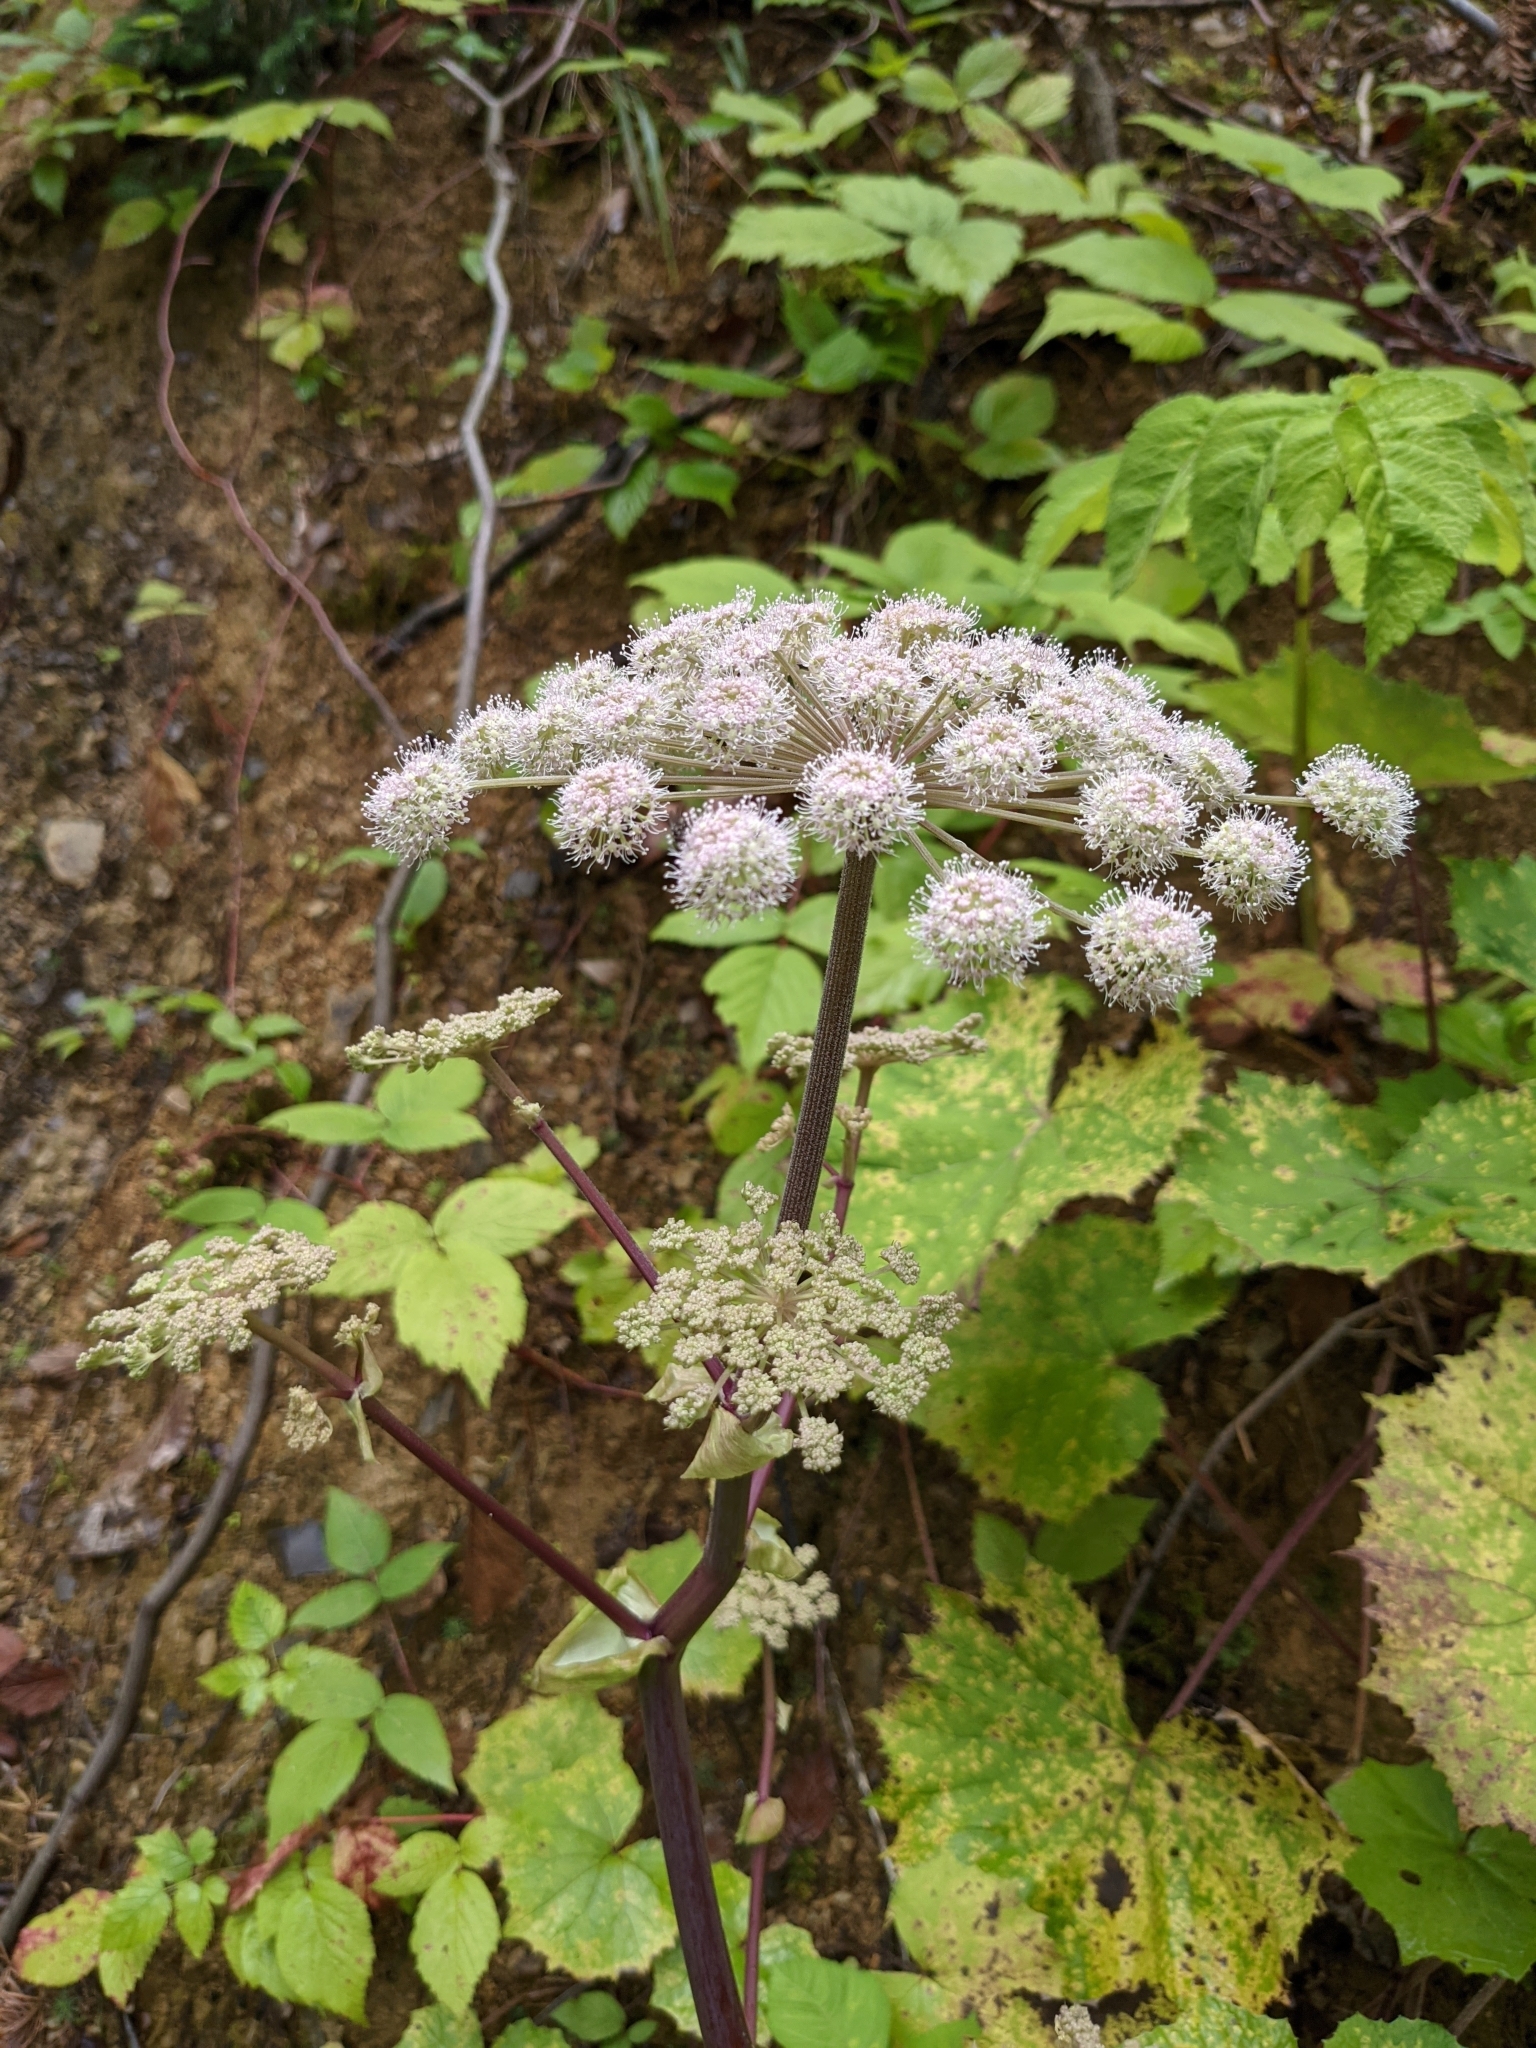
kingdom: Plantae
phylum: Tracheophyta
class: Magnoliopsida
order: Apiales
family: Apiaceae
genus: Angelica
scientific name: Angelica sylvestris
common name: Wild angelica
